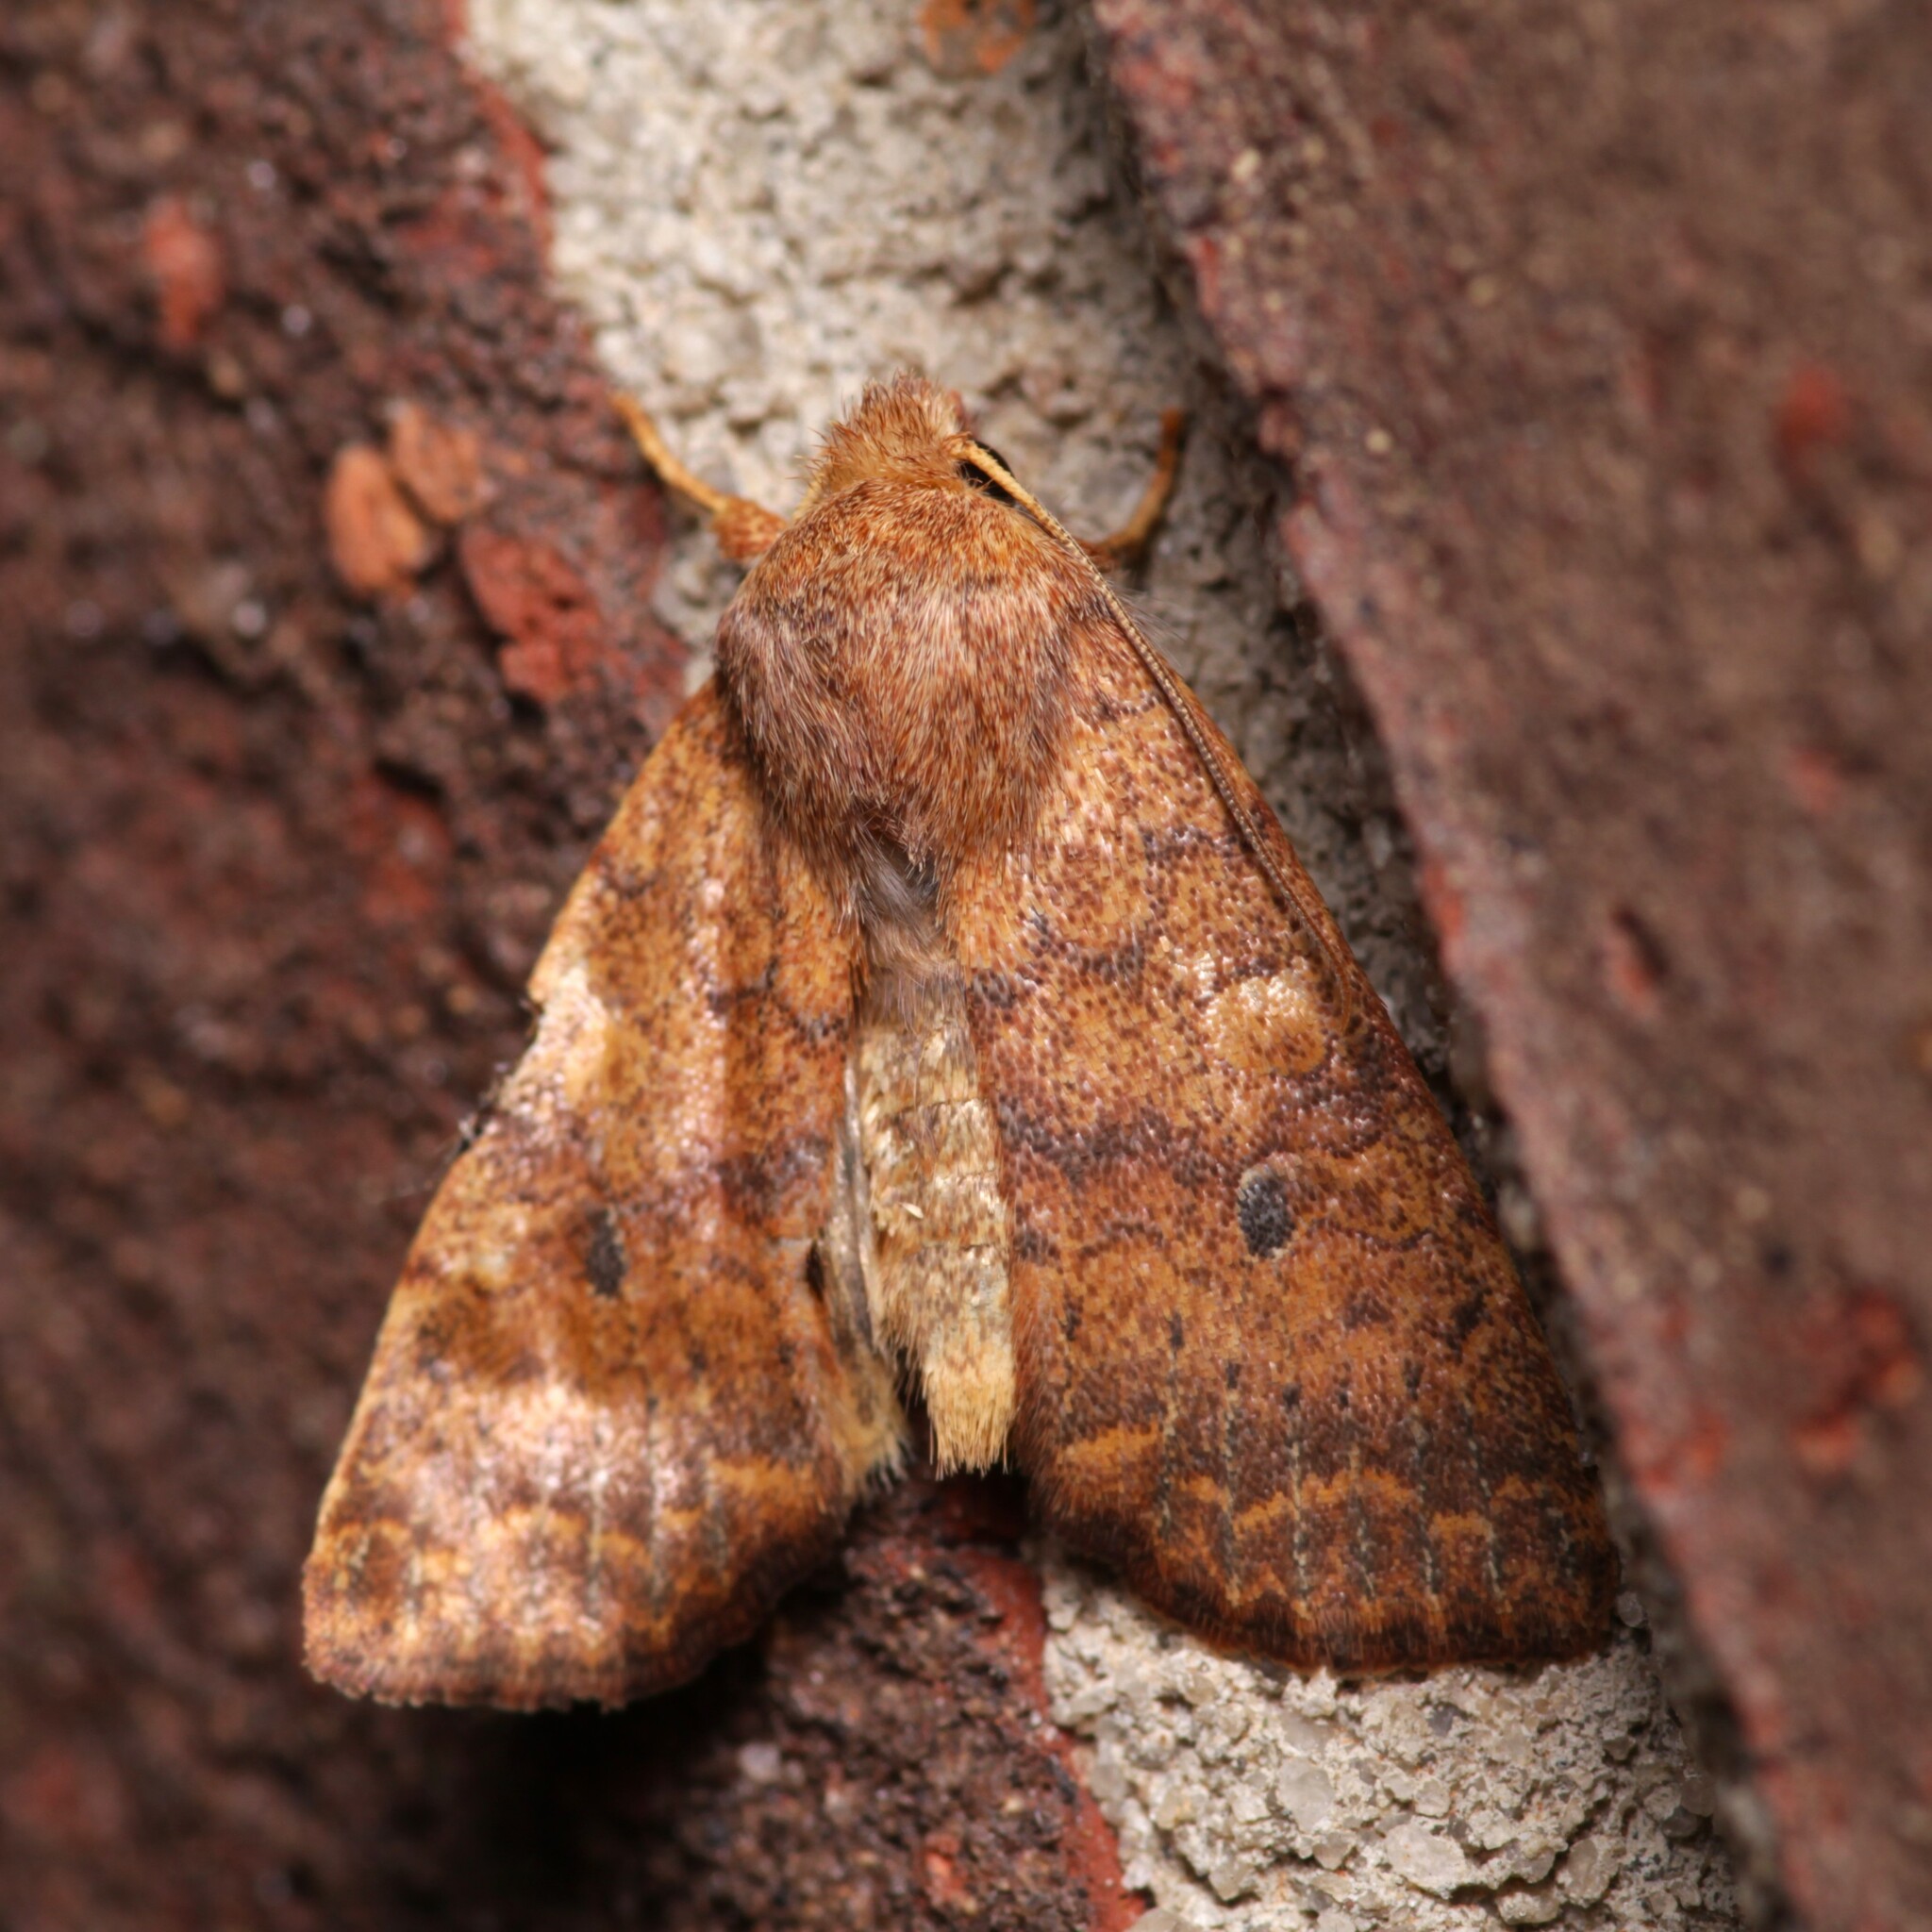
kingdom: Animalia
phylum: Arthropoda
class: Insecta
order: Lepidoptera
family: Noctuidae
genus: Agrochola
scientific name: Agrochola bicolorago
